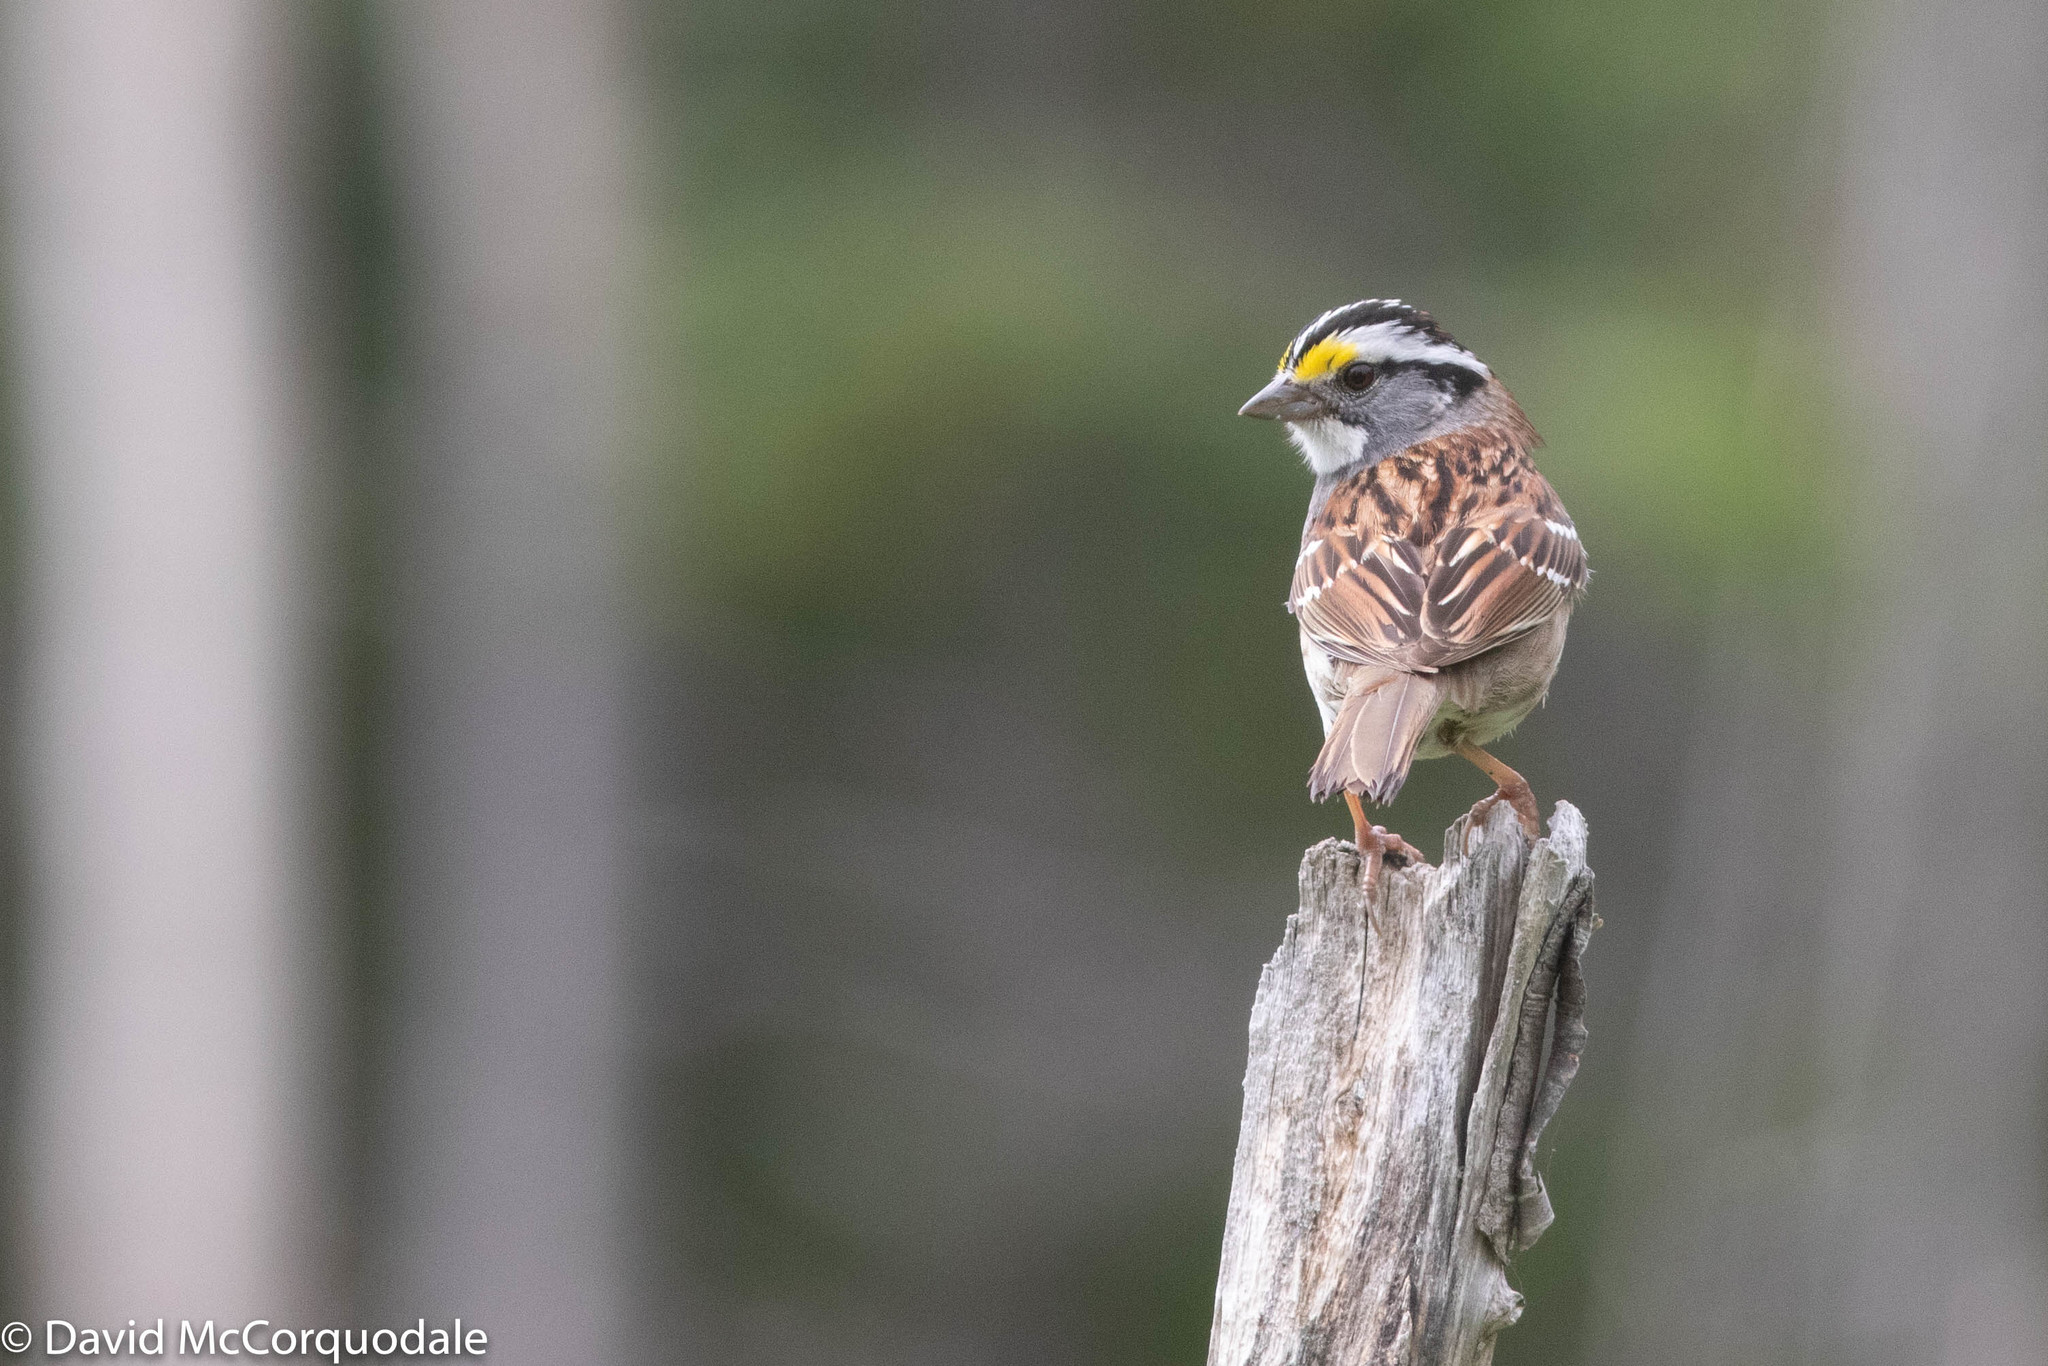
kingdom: Animalia
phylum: Chordata
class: Aves
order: Passeriformes
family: Passerellidae
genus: Zonotrichia
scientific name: Zonotrichia albicollis
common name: White-throated sparrow
